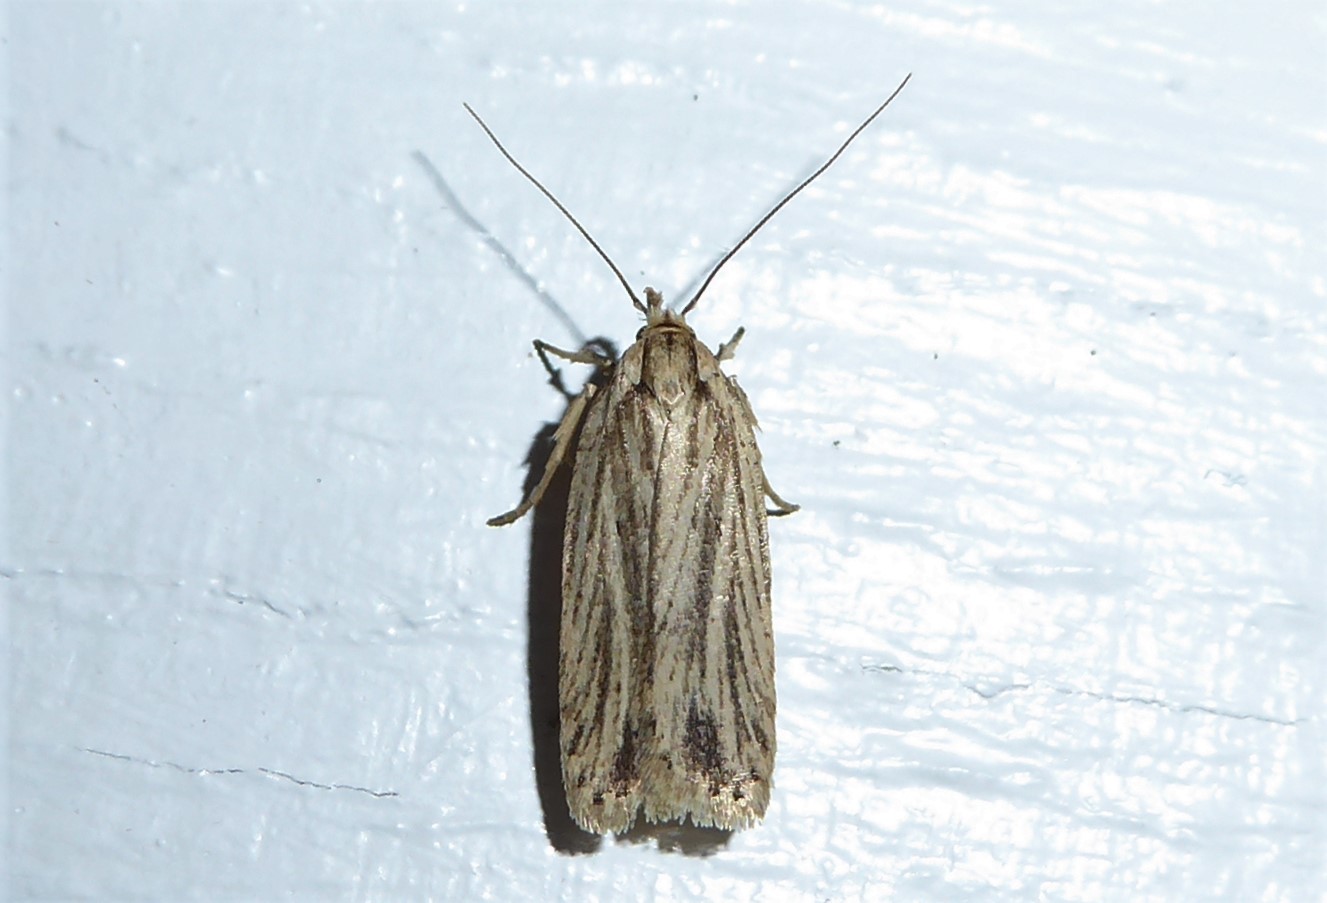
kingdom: Animalia
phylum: Arthropoda
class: Insecta
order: Lepidoptera
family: Depressariidae
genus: Agonopterix
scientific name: Agonopterix
